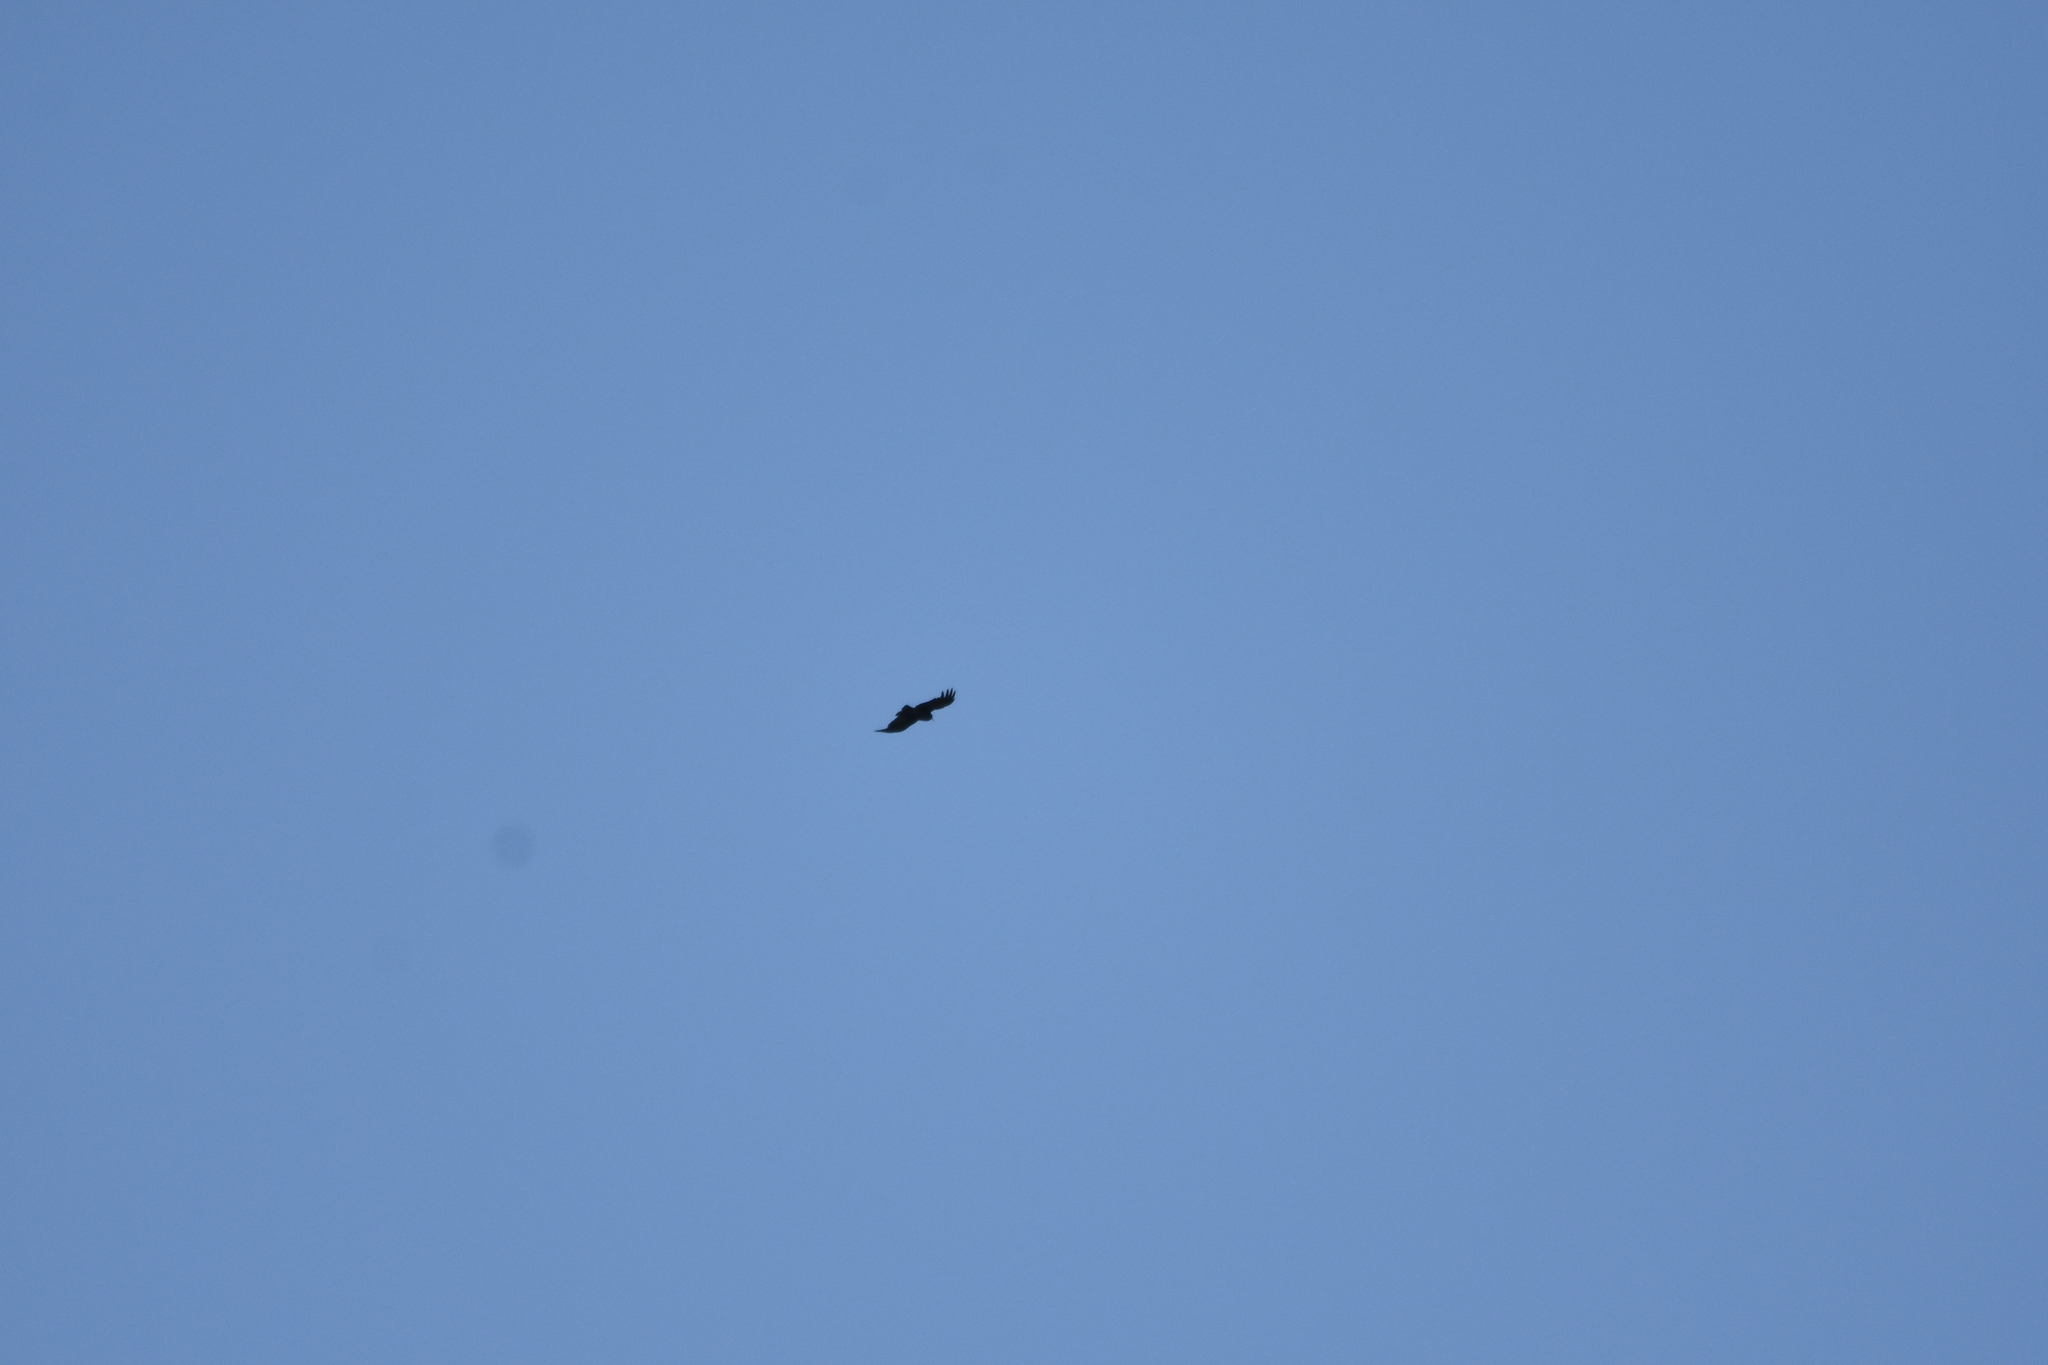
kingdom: Animalia
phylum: Chordata
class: Aves
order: Passeriformes
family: Corvidae
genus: Pyrrhocorax
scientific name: Pyrrhocorax graculus
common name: Alpine chough
